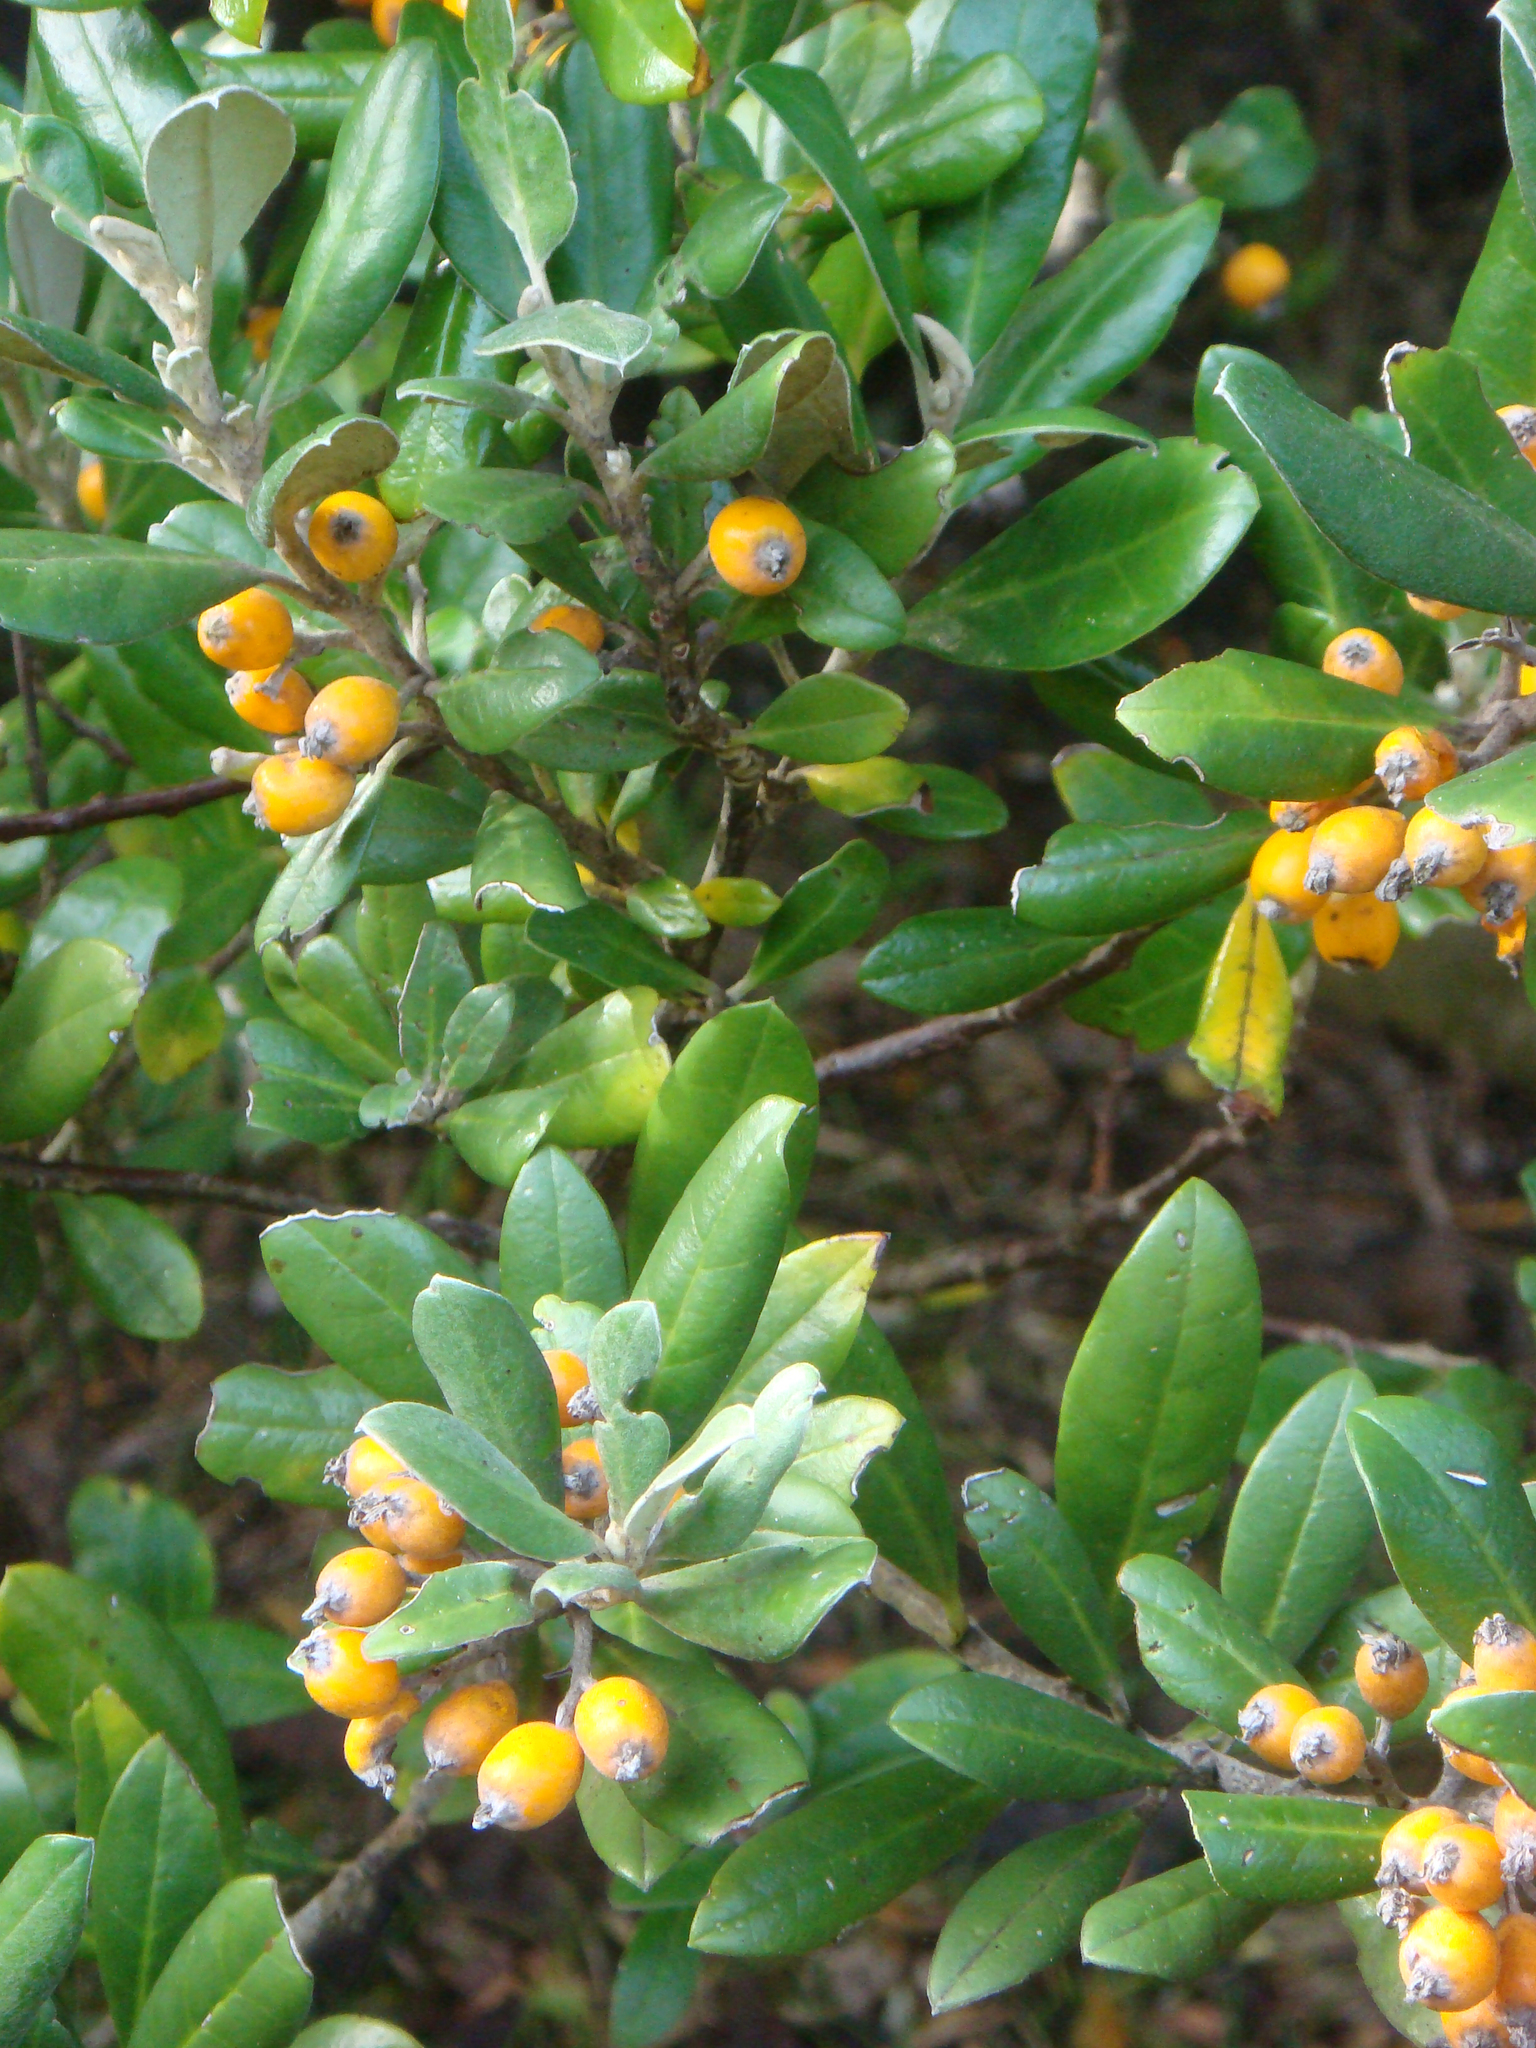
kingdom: Plantae
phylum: Tracheophyta
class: Magnoliopsida
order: Asterales
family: Argophyllaceae
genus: Corokia
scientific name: Corokia macrocarpa
